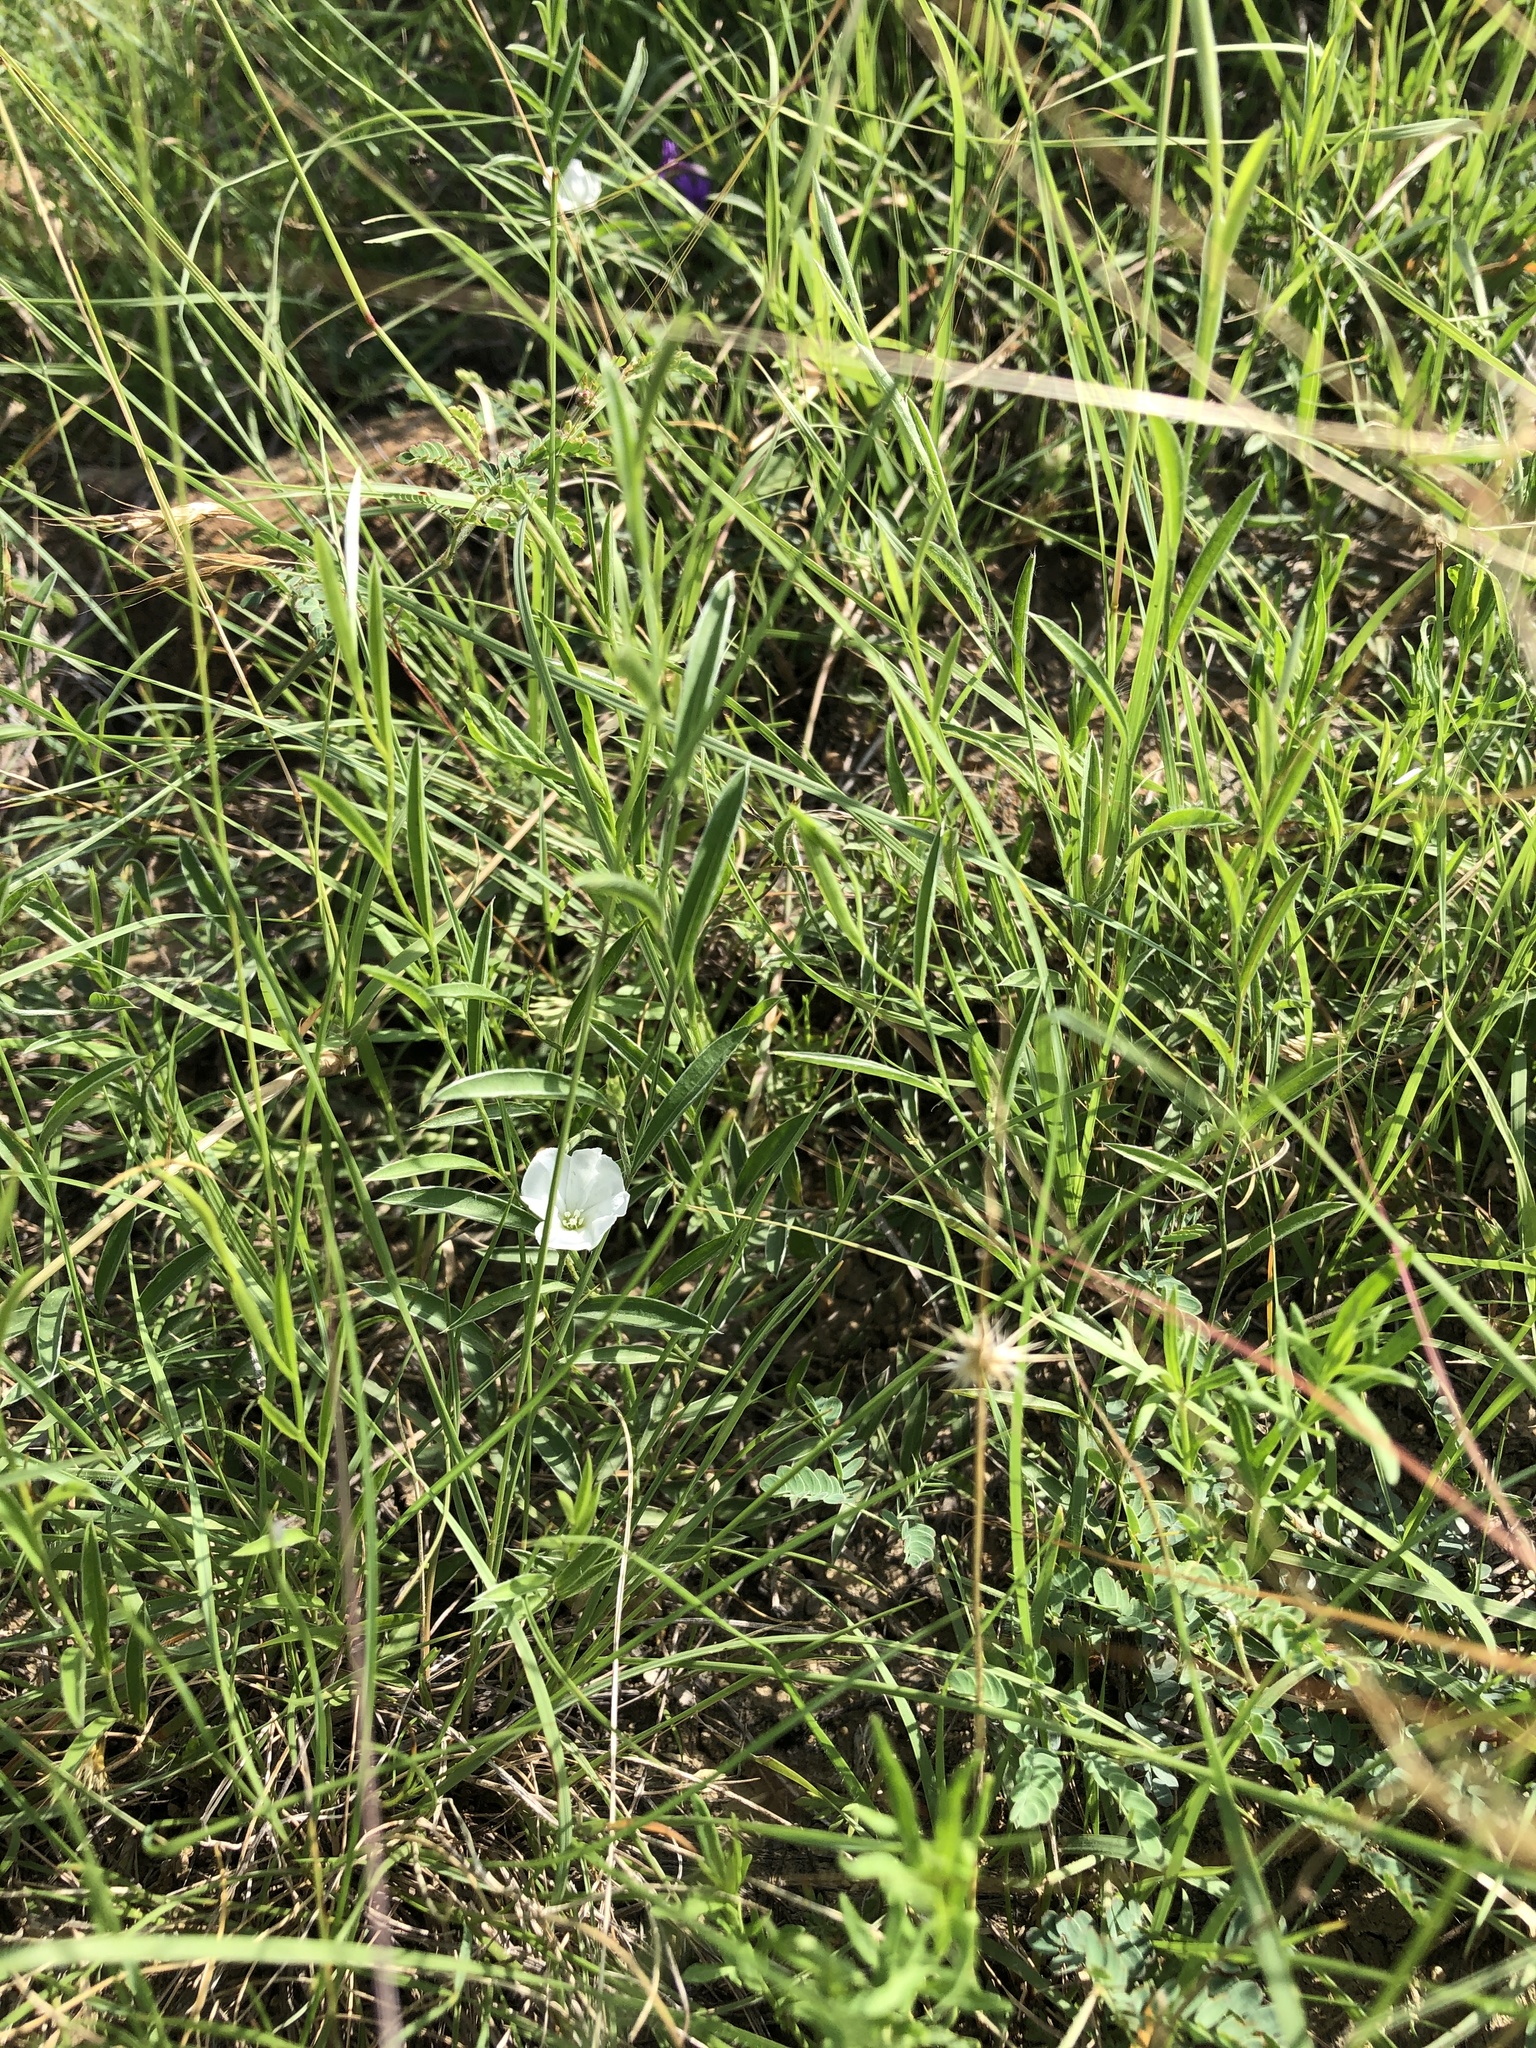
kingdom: Plantae
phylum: Tracheophyta
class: Magnoliopsida
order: Solanales
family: Convolvulaceae
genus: Evolvulus
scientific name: Evolvulus sericeus
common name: Blue dots
